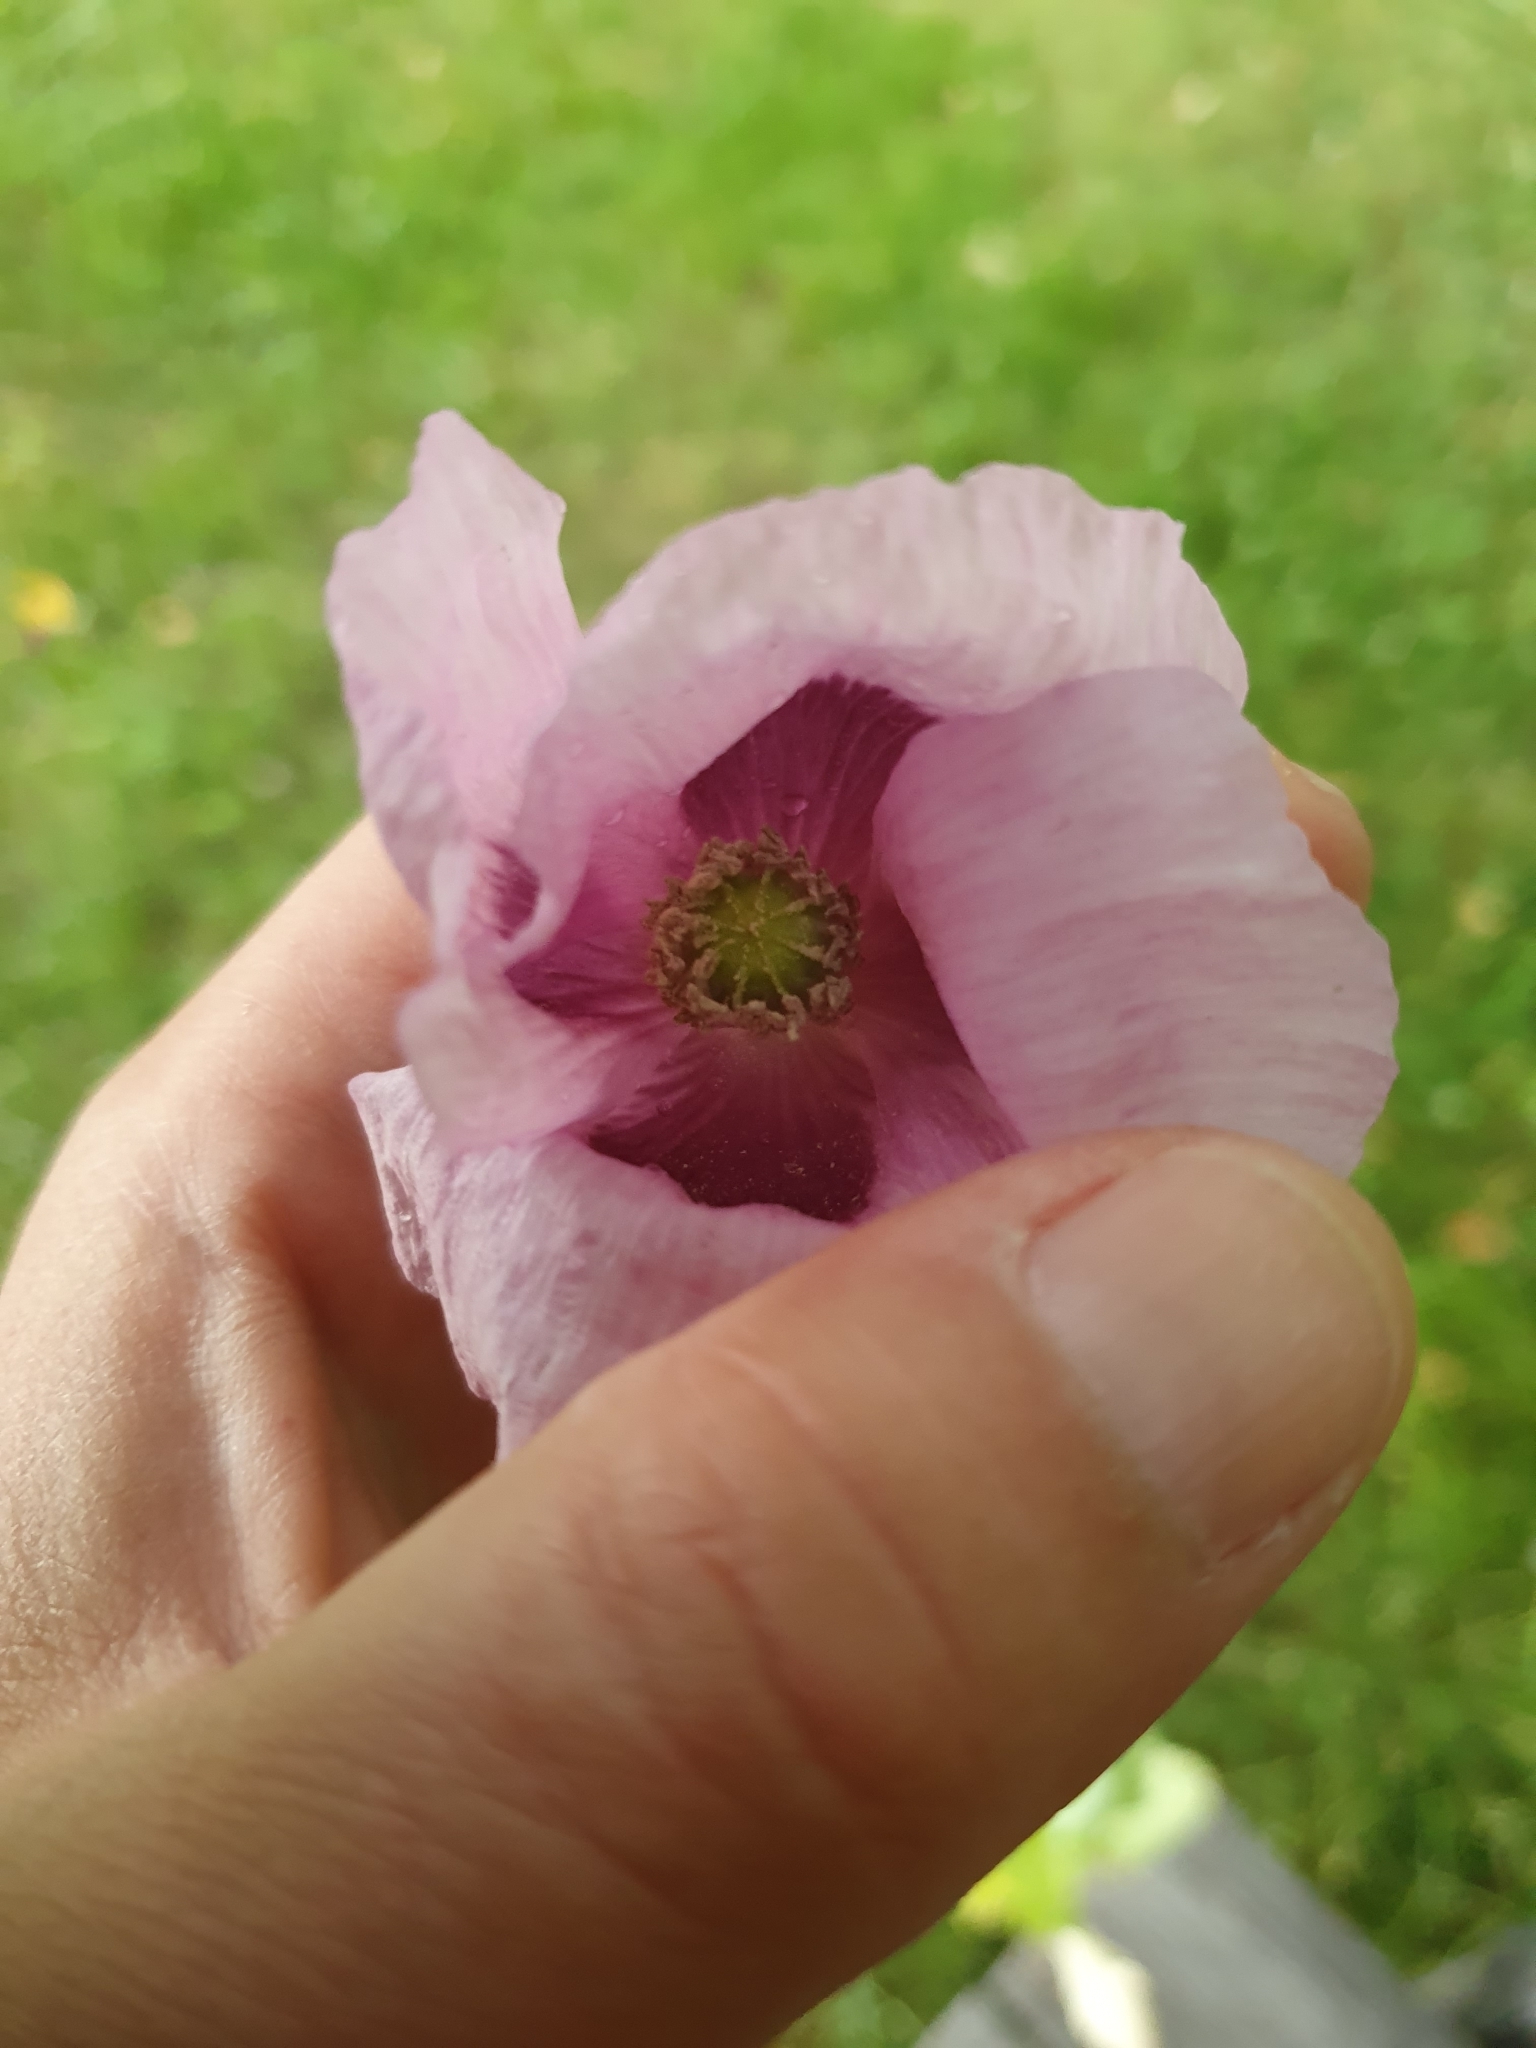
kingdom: Plantae
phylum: Tracheophyta
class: Magnoliopsida
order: Ranunculales
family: Papaveraceae
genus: Papaver
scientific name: Papaver somniferum
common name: Opium poppy
